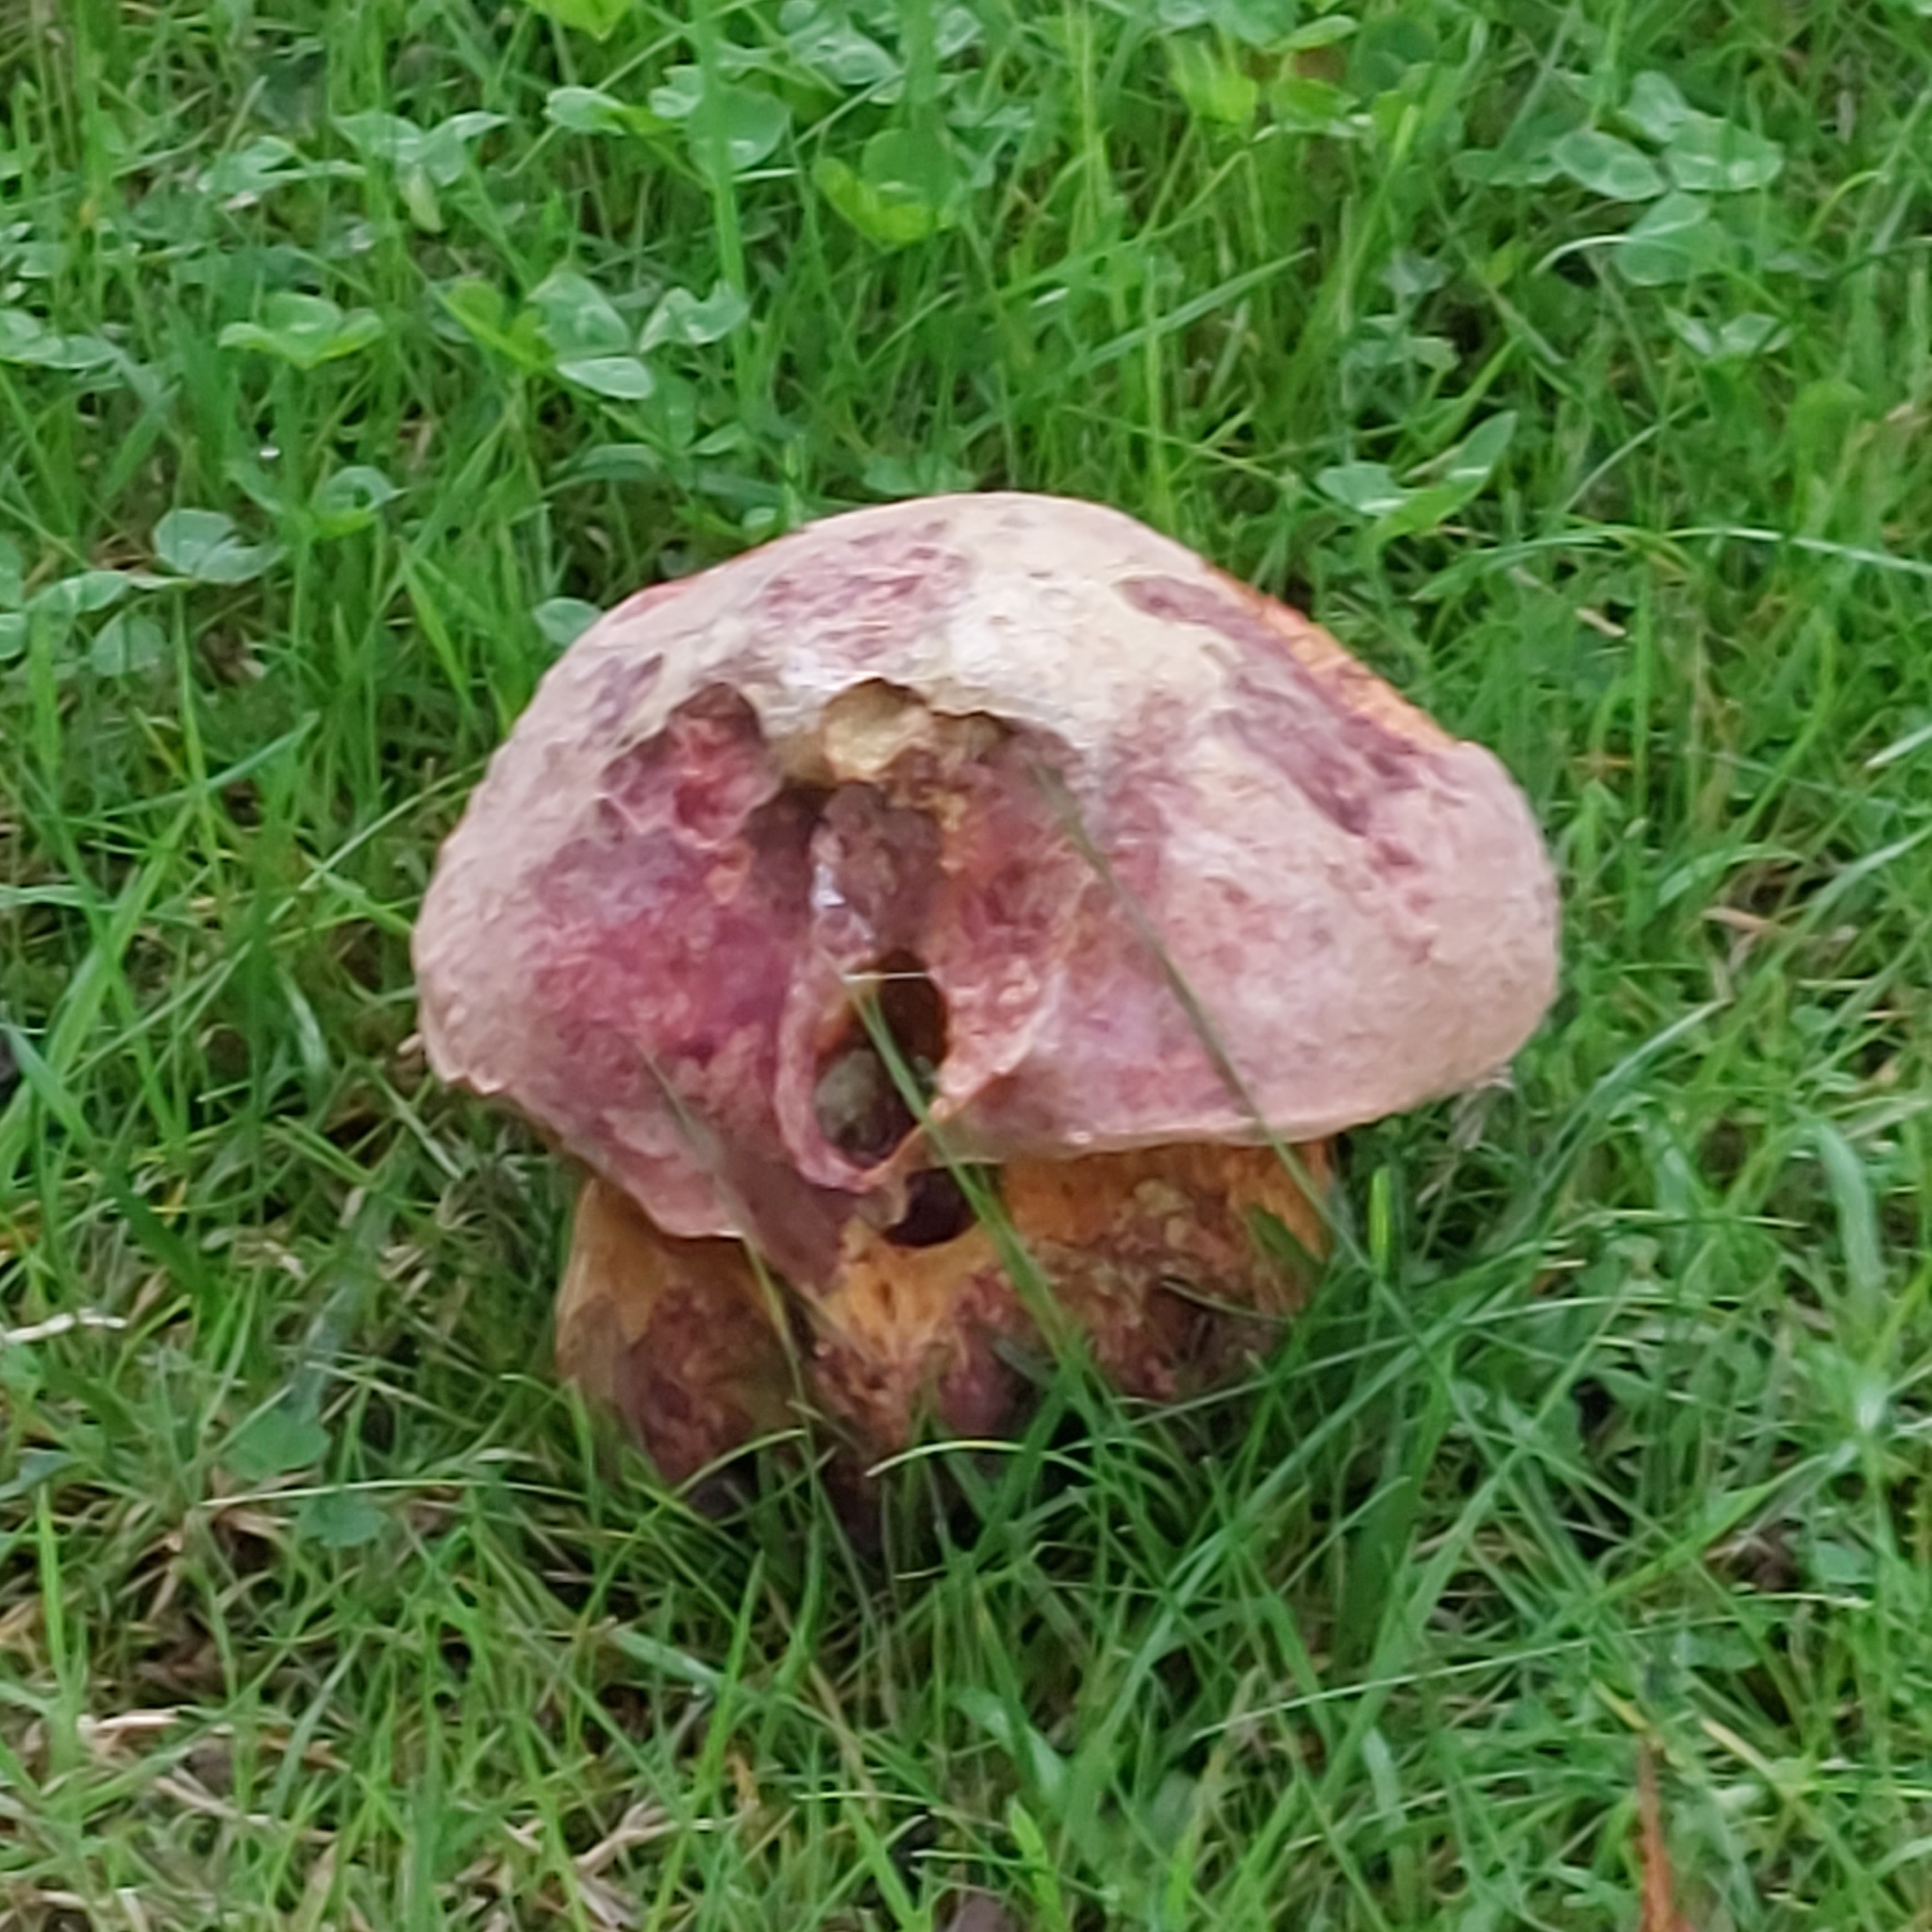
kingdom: Fungi
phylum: Basidiomycota
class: Agaricomycetes
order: Boletales
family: Boletaceae
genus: Suillellus
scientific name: Suillellus luridus
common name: Lurid bolete
